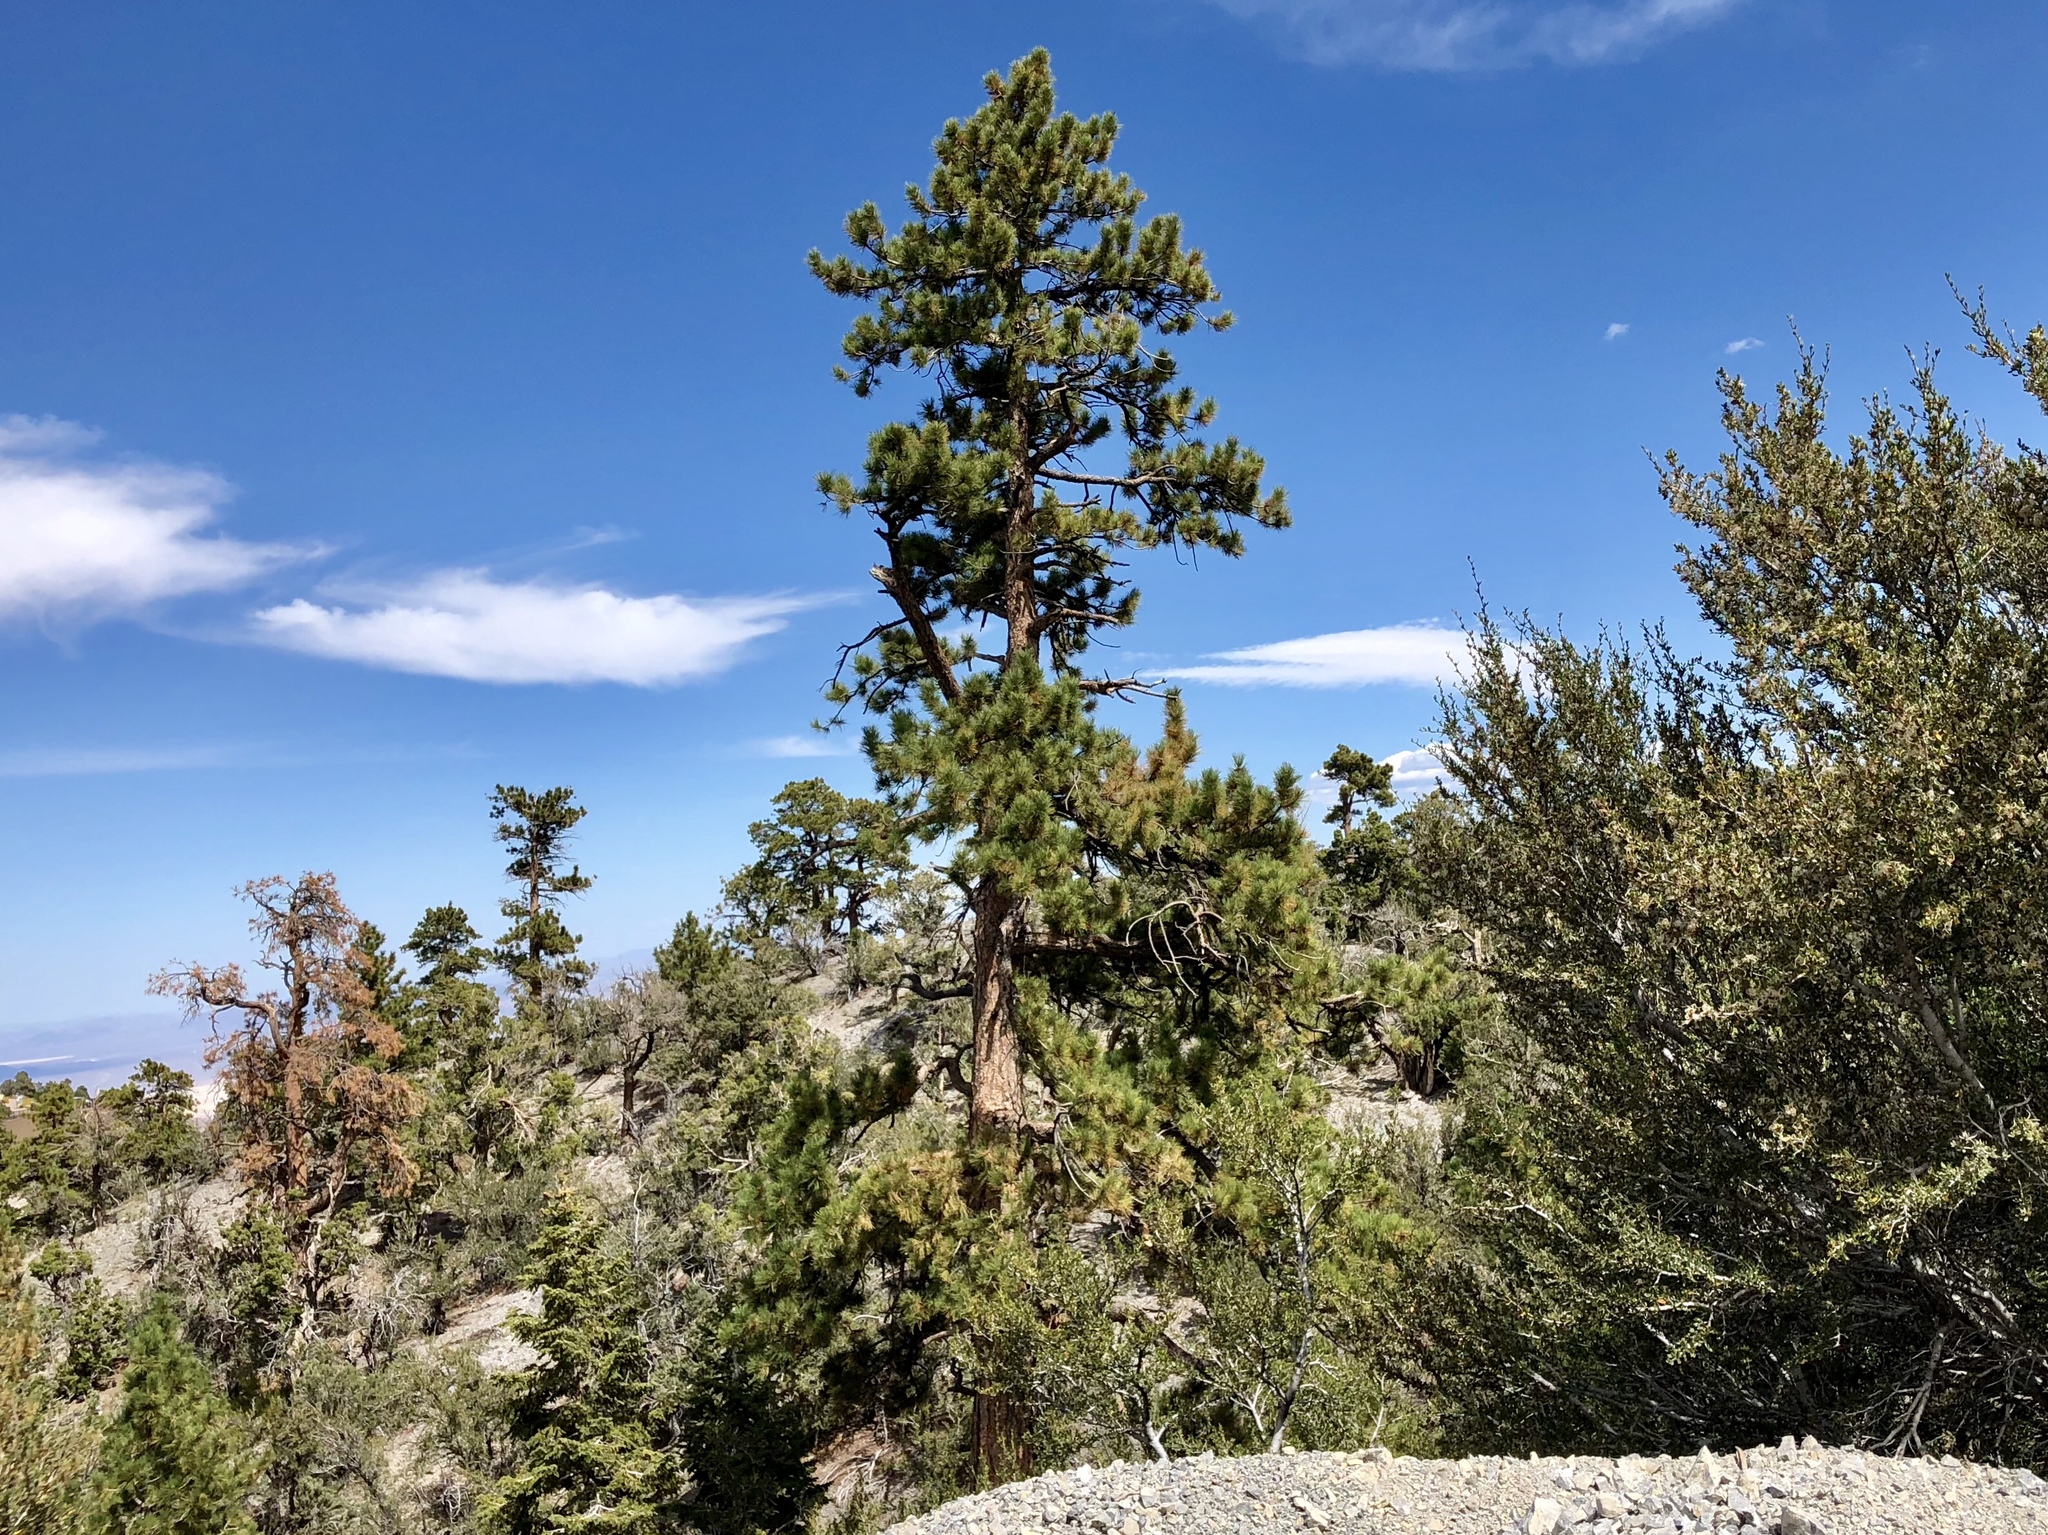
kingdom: Plantae
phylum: Tracheophyta
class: Pinopsida
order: Pinales
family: Pinaceae
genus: Pinus
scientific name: Pinus ponderosa
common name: Western yellow-pine
